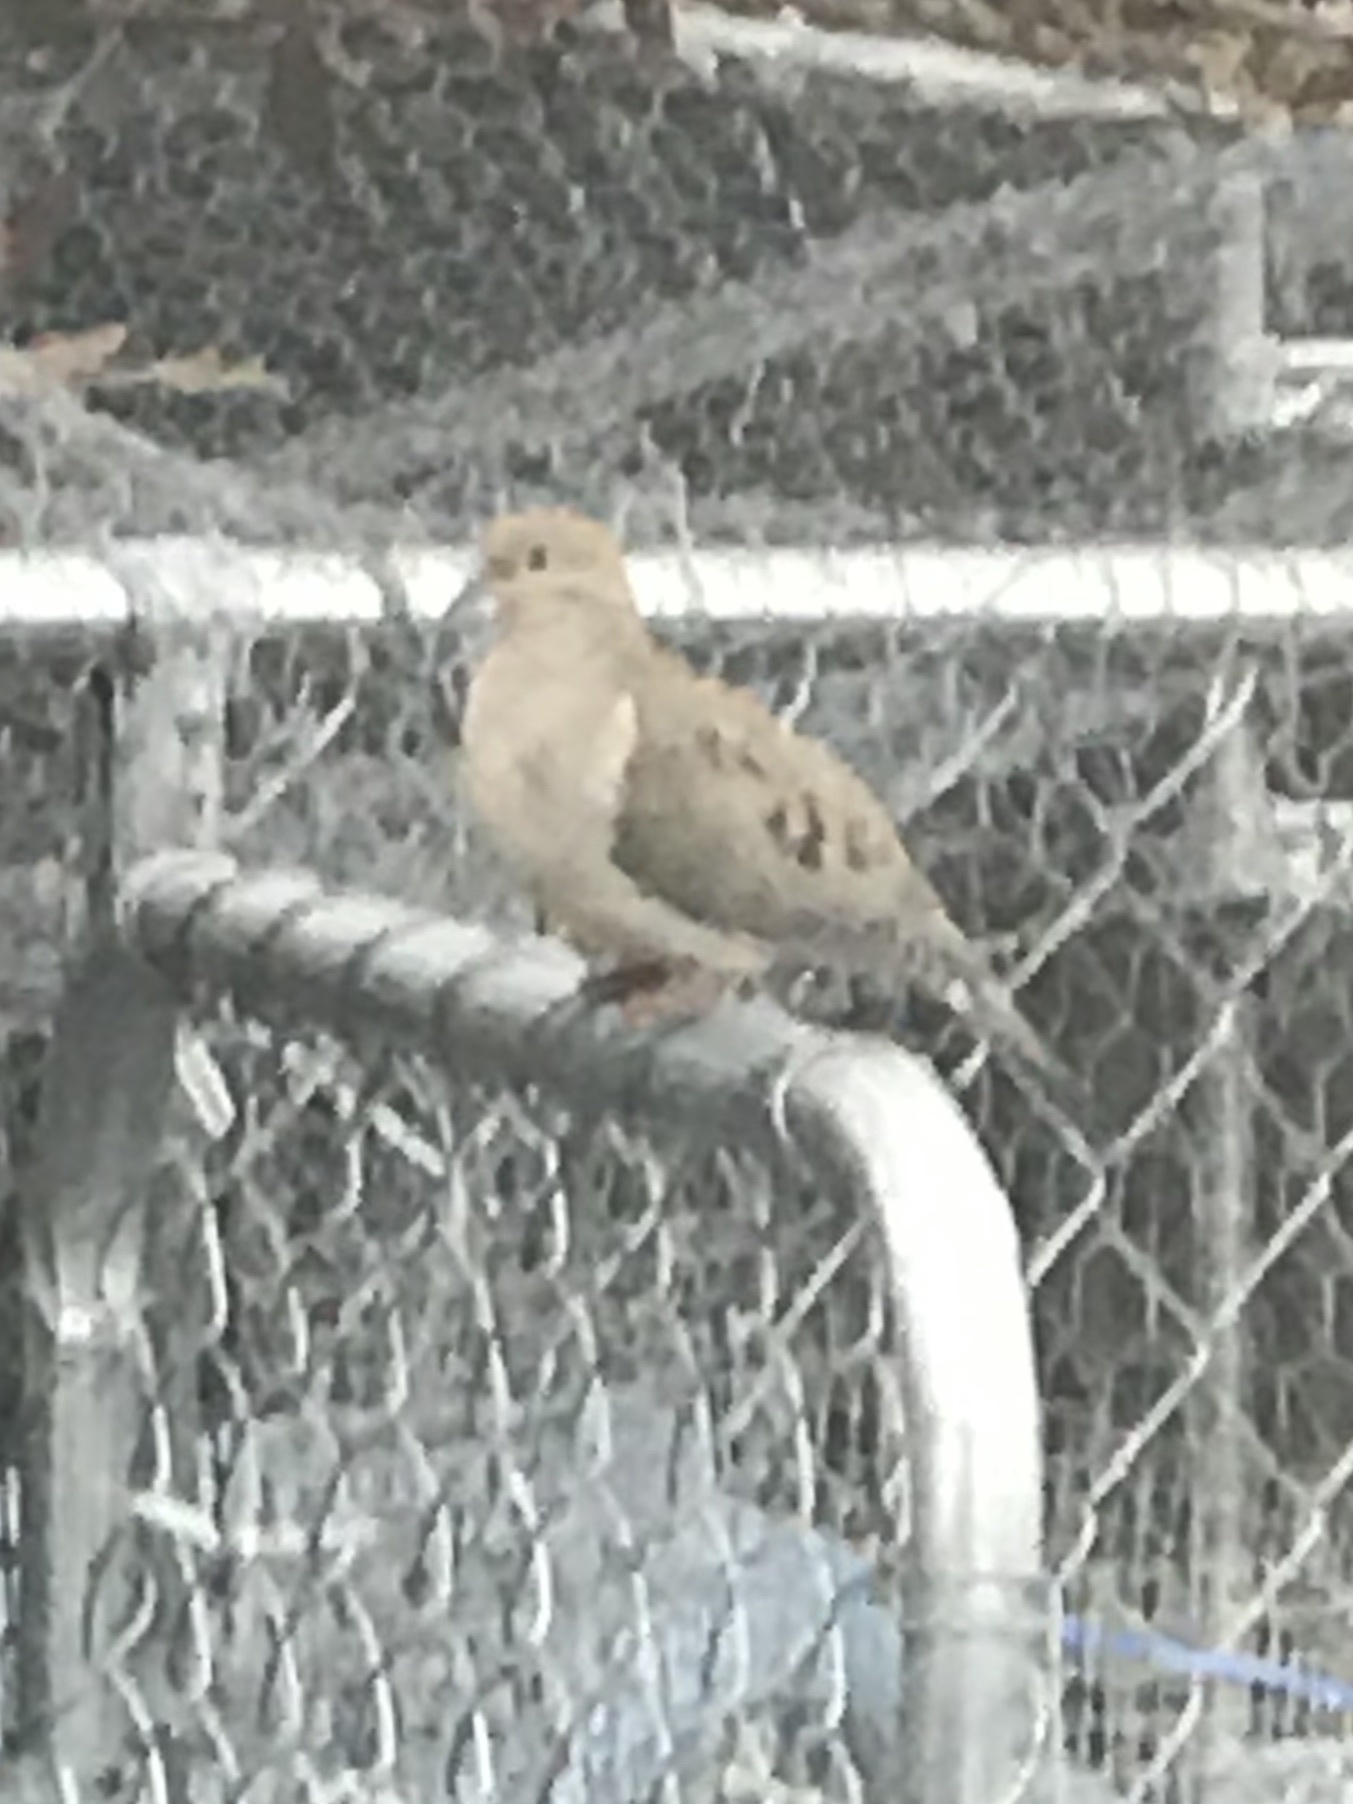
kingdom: Animalia
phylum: Chordata
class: Aves
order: Columbiformes
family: Columbidae
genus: Zenaida
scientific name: Zenaida macroura
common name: Mourning dove
